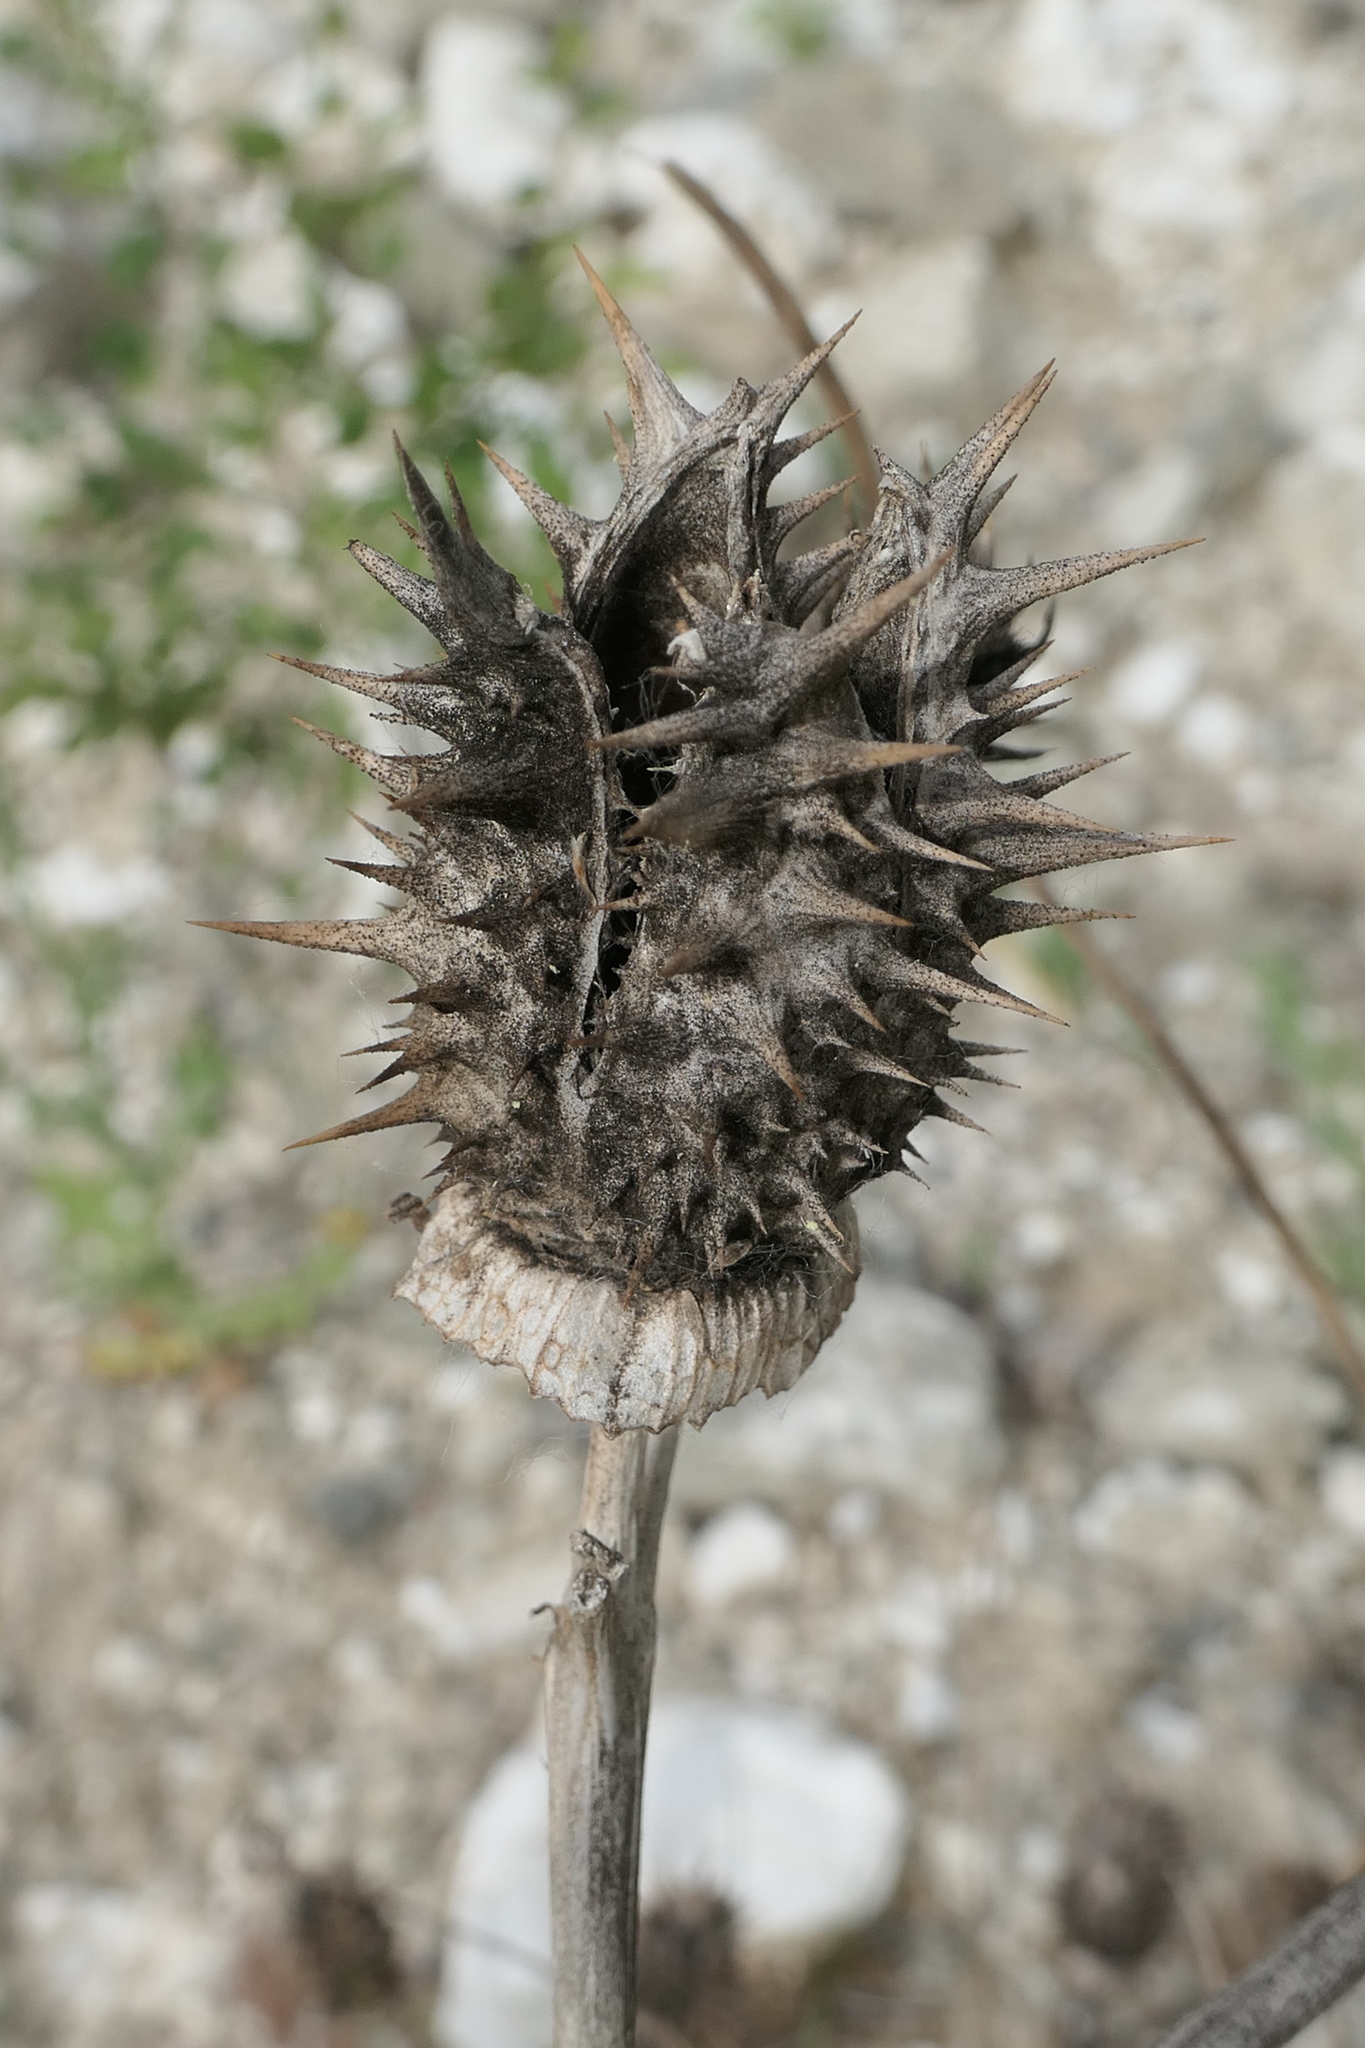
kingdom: Plantae
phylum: Tracheophyta
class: Magnoliopsida
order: Solanales
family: Solanaceae
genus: Datura
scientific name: Datura stramonium
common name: Thorn-apple
